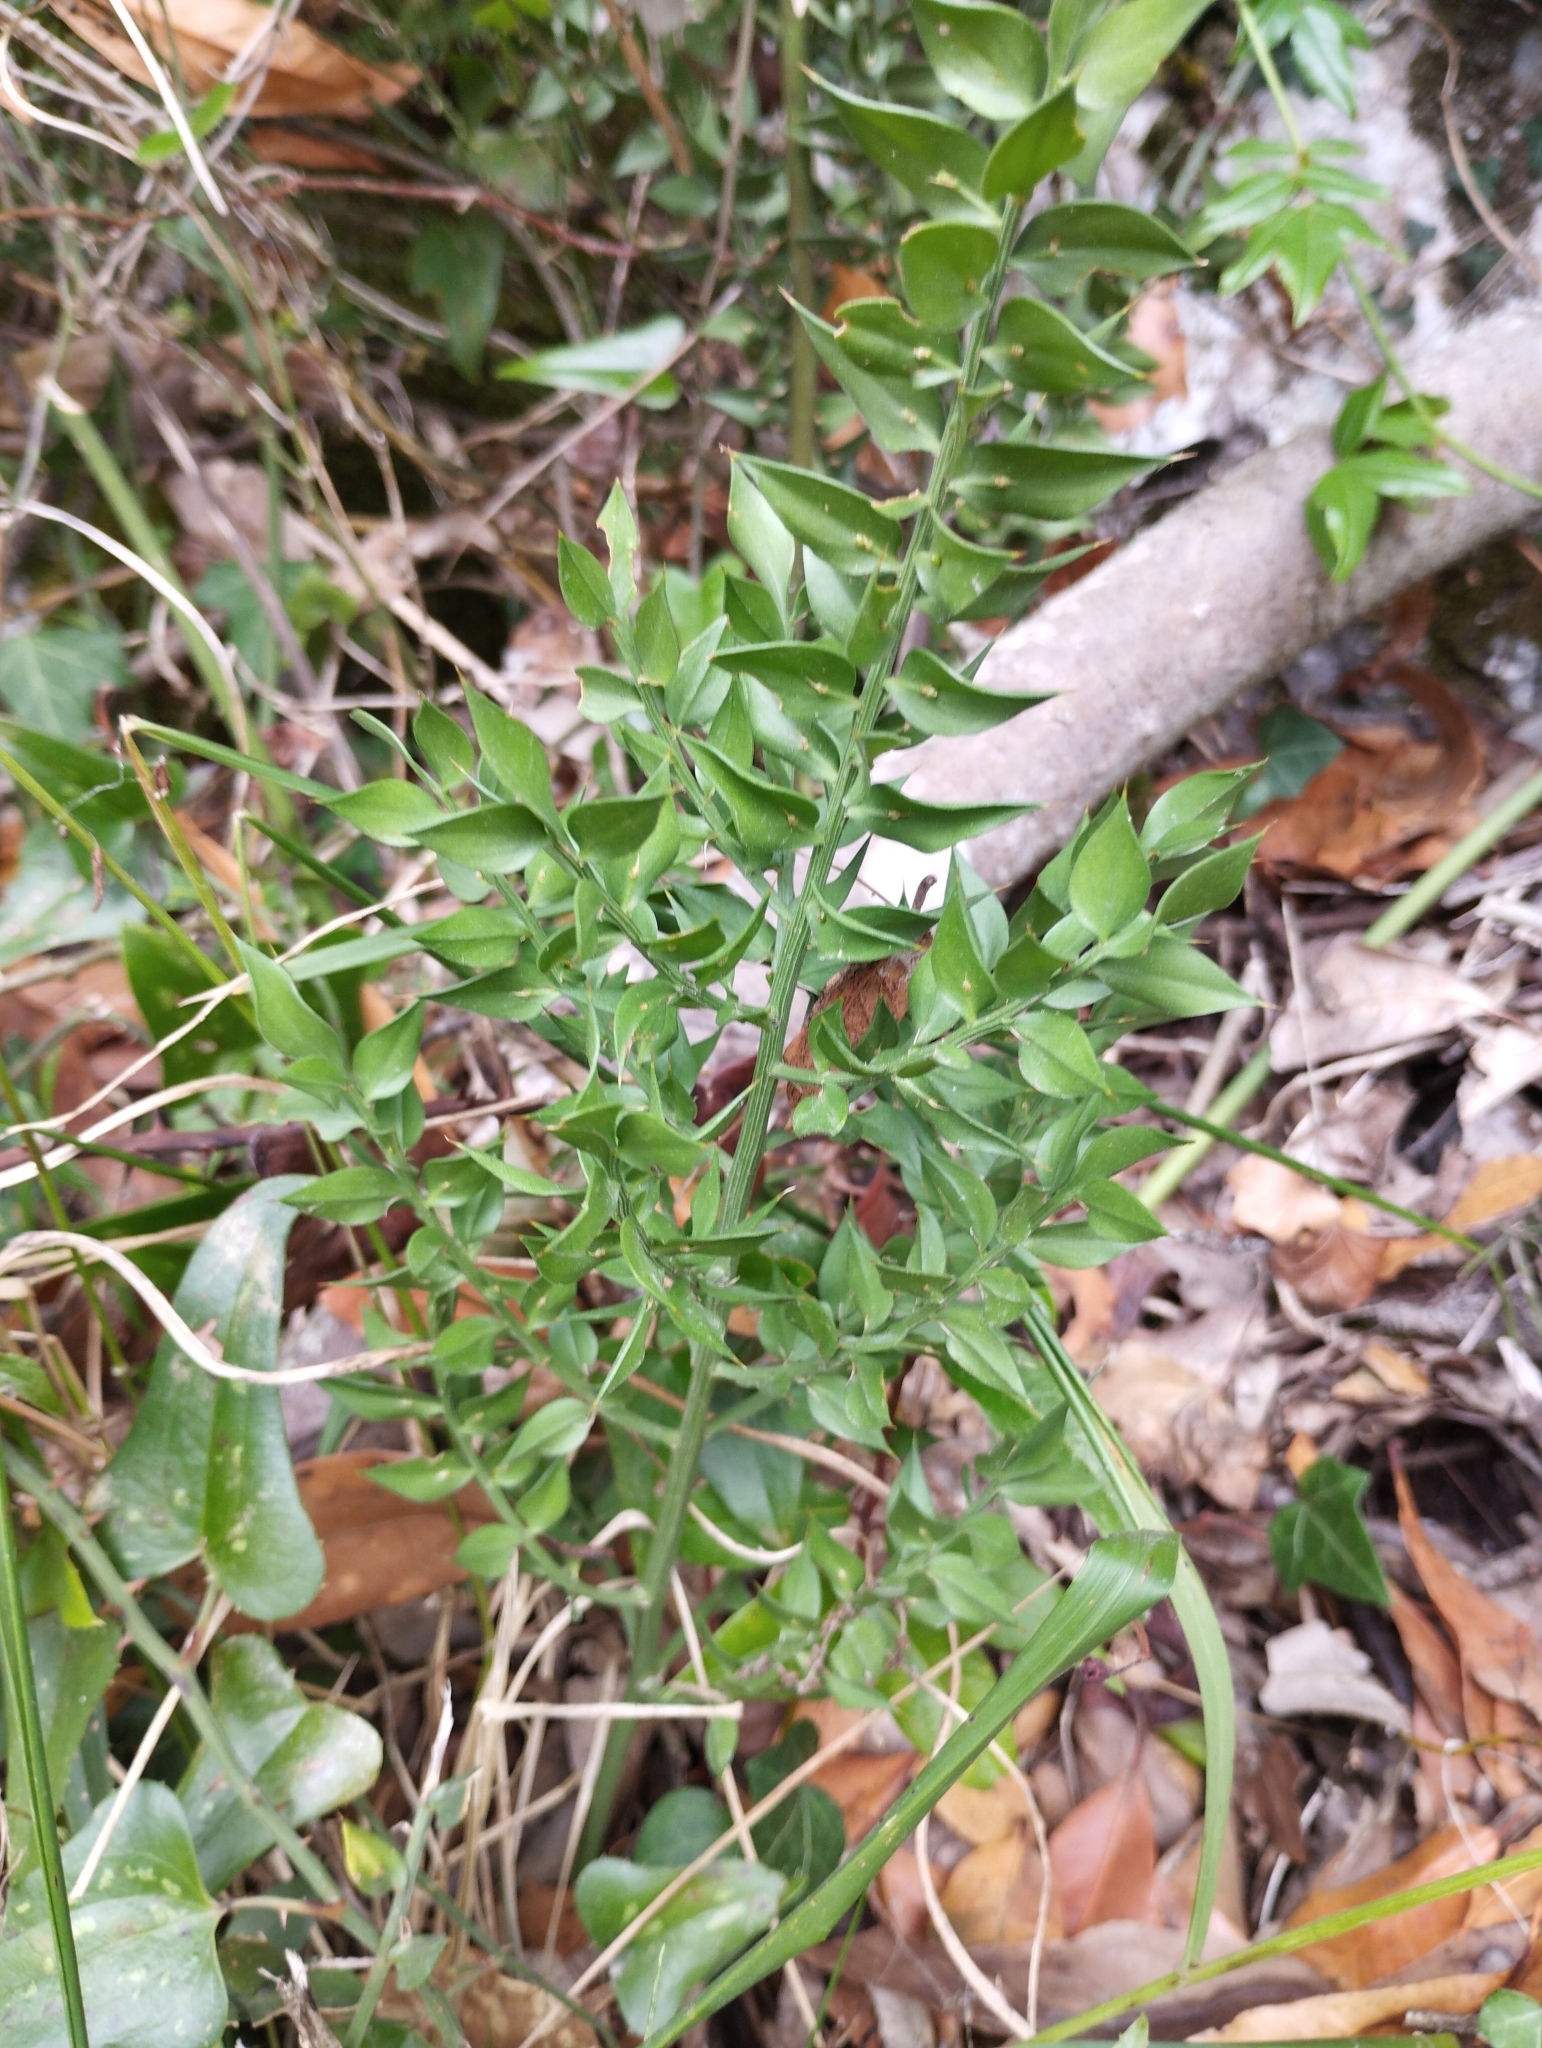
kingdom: Plantae
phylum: Tracheophyta
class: Liliopsida
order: Asparagales
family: Asparagaceae
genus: Ruscus
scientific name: Ruscus aculeatus
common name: Butcher's-broom
